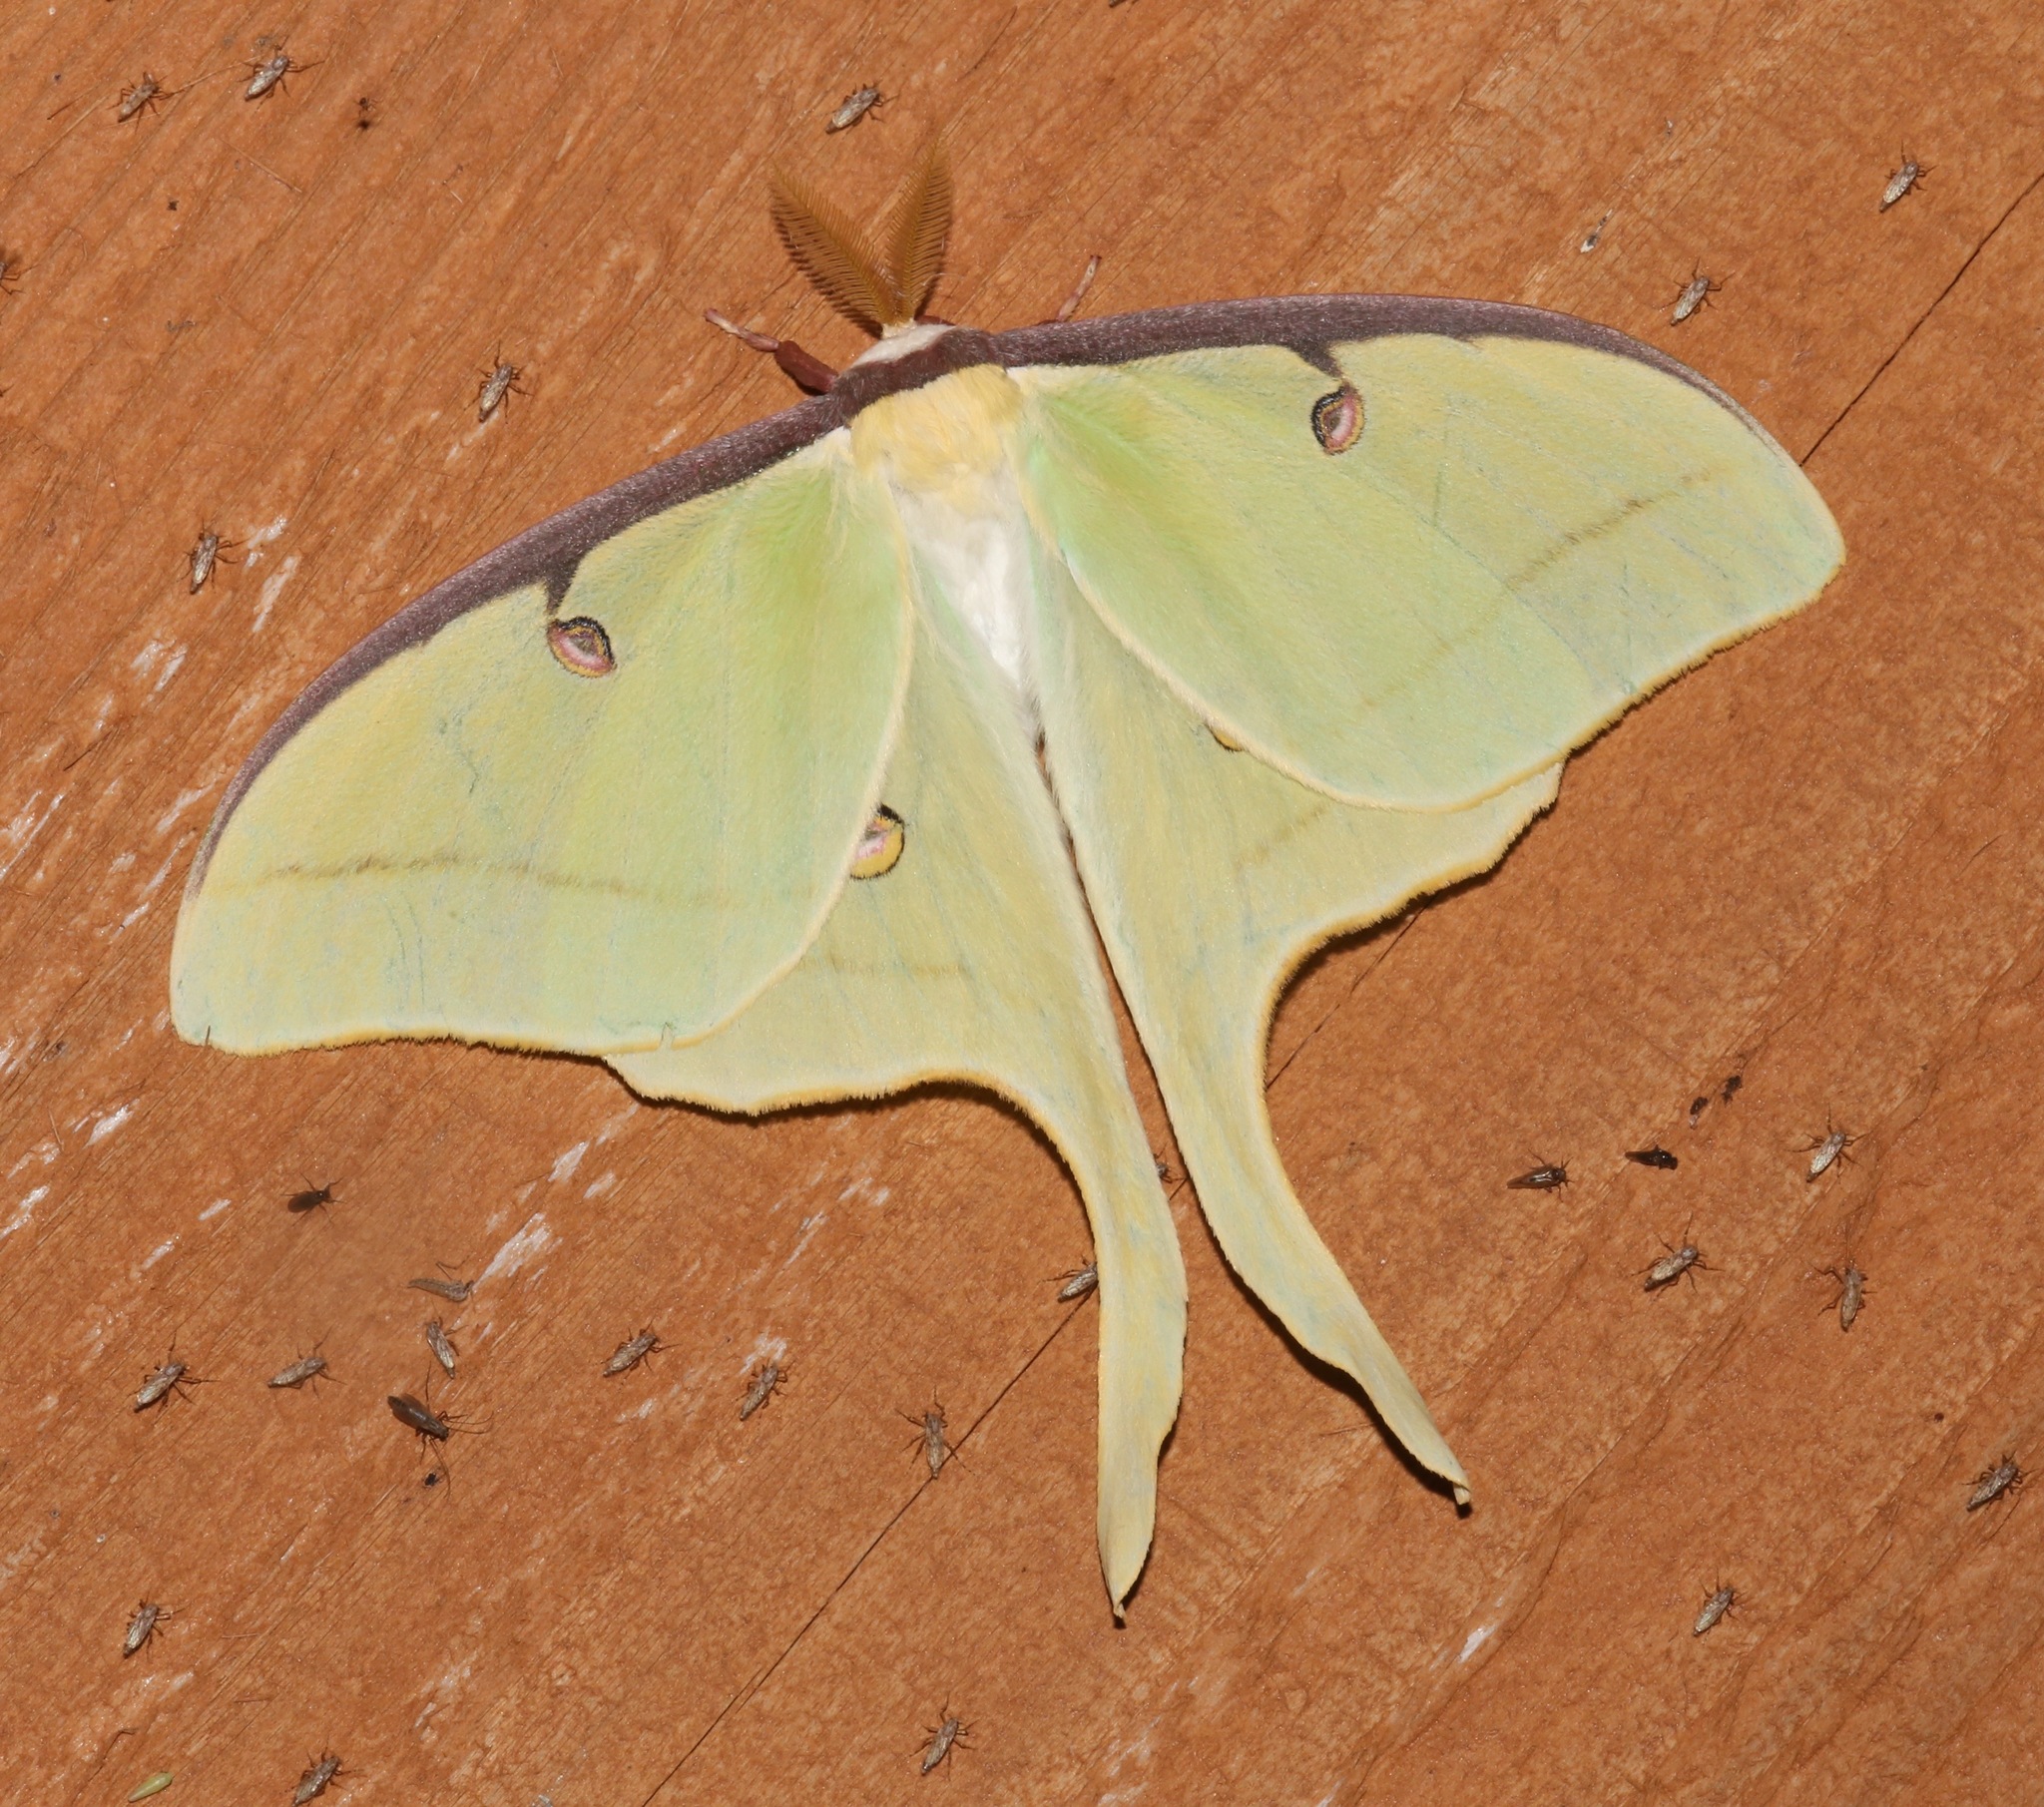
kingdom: Animalia
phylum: Arthropoda
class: Insecta
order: Lepidoptera
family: Saturniidae
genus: Actias
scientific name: Actias luna
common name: Luna moth
